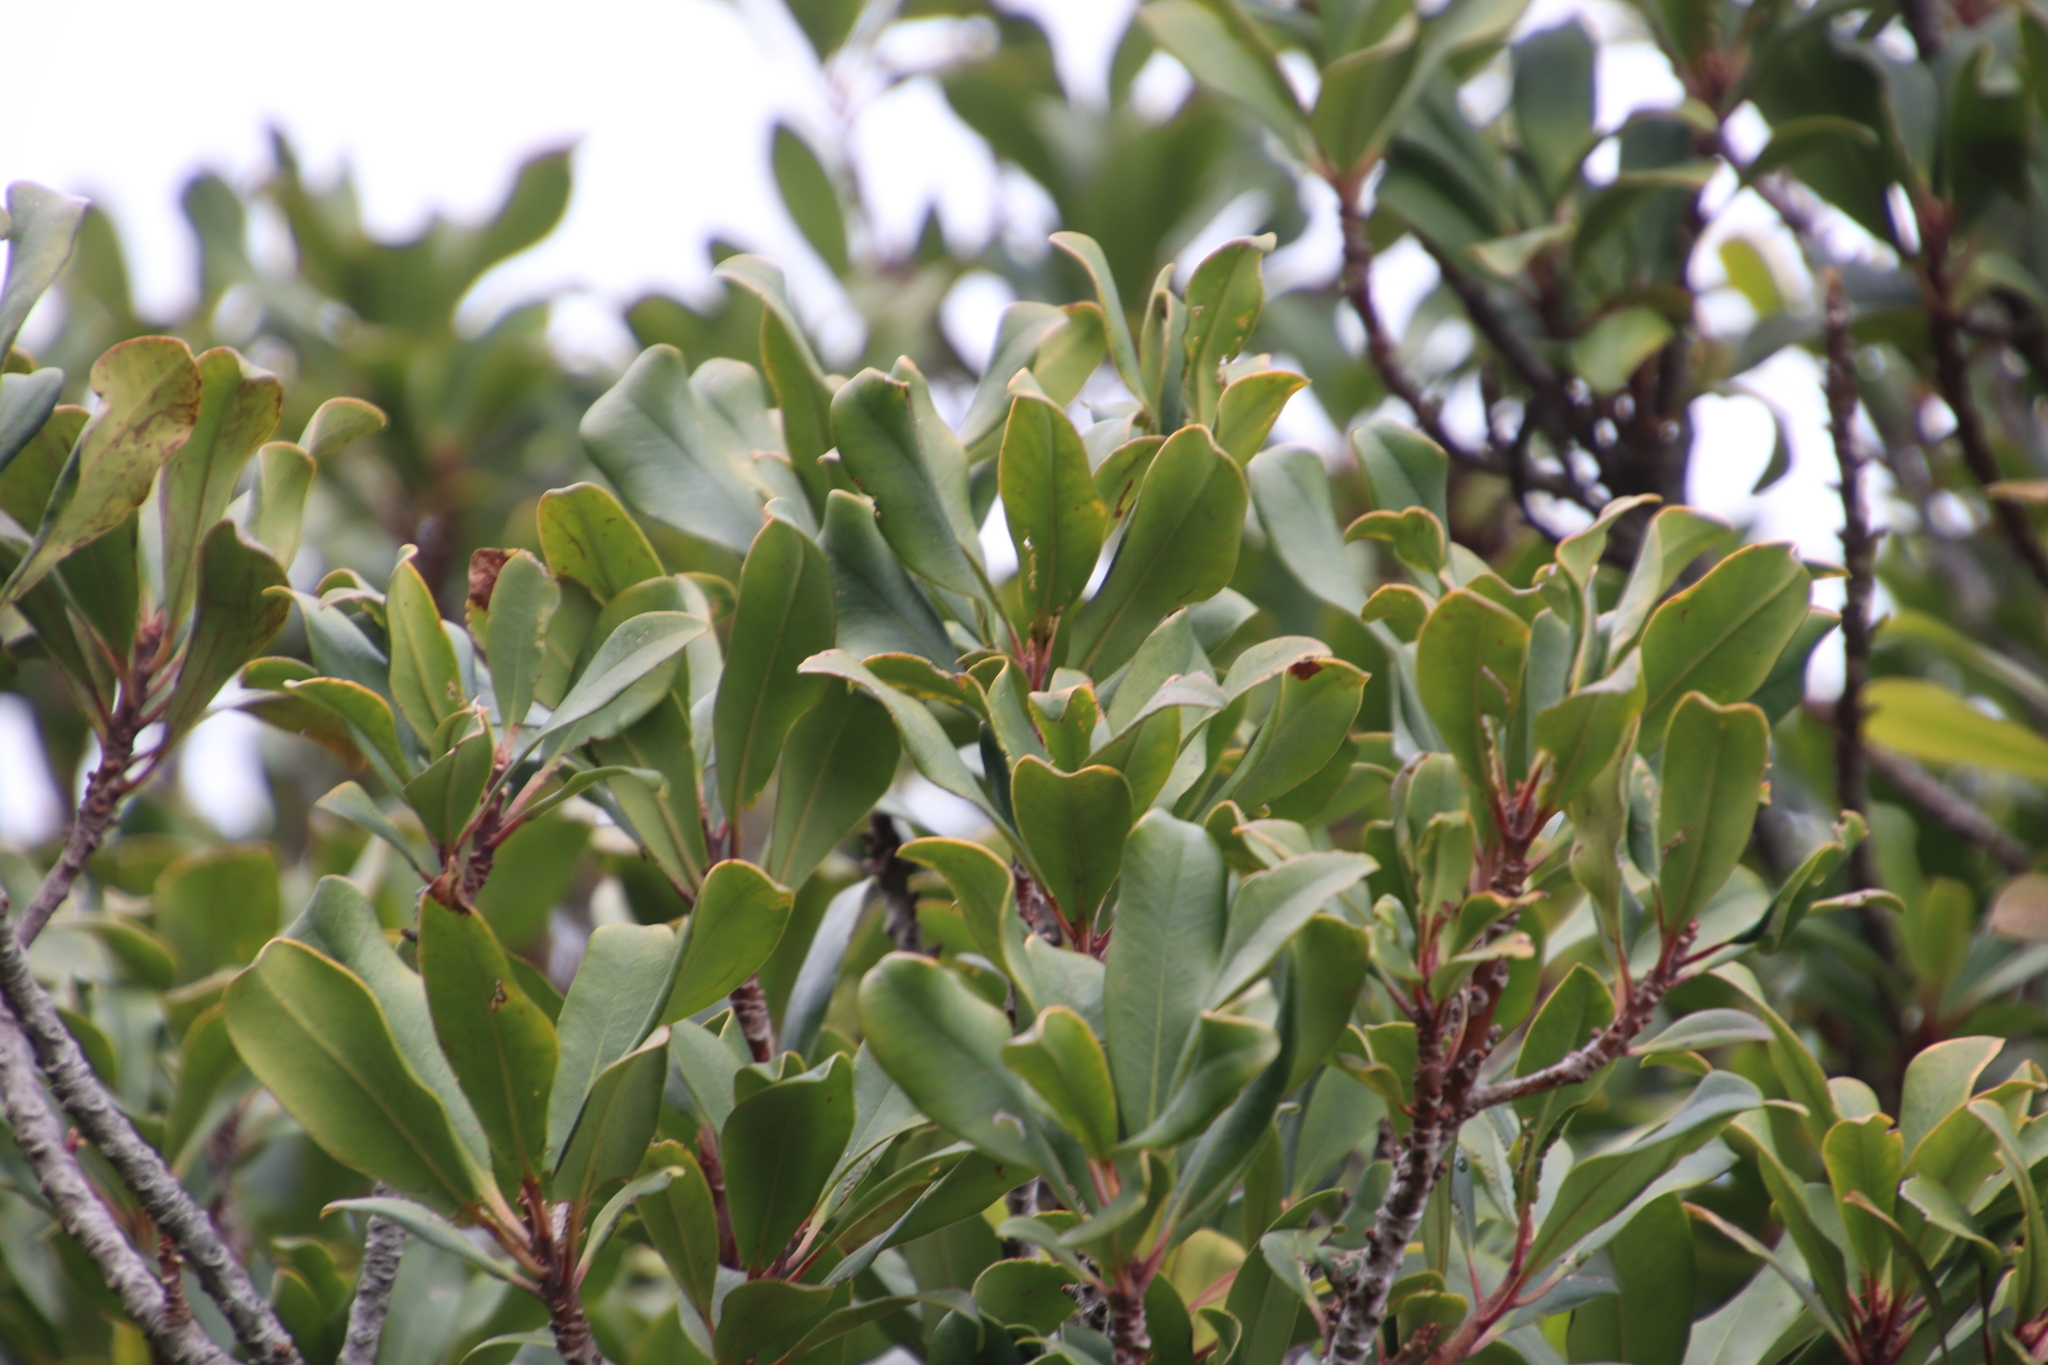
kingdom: Plantae
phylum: Tracheophyta
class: Magnoliopsida
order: Ericales
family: Primulaceae
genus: Myrsine
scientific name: Myrsine melanophloeos
